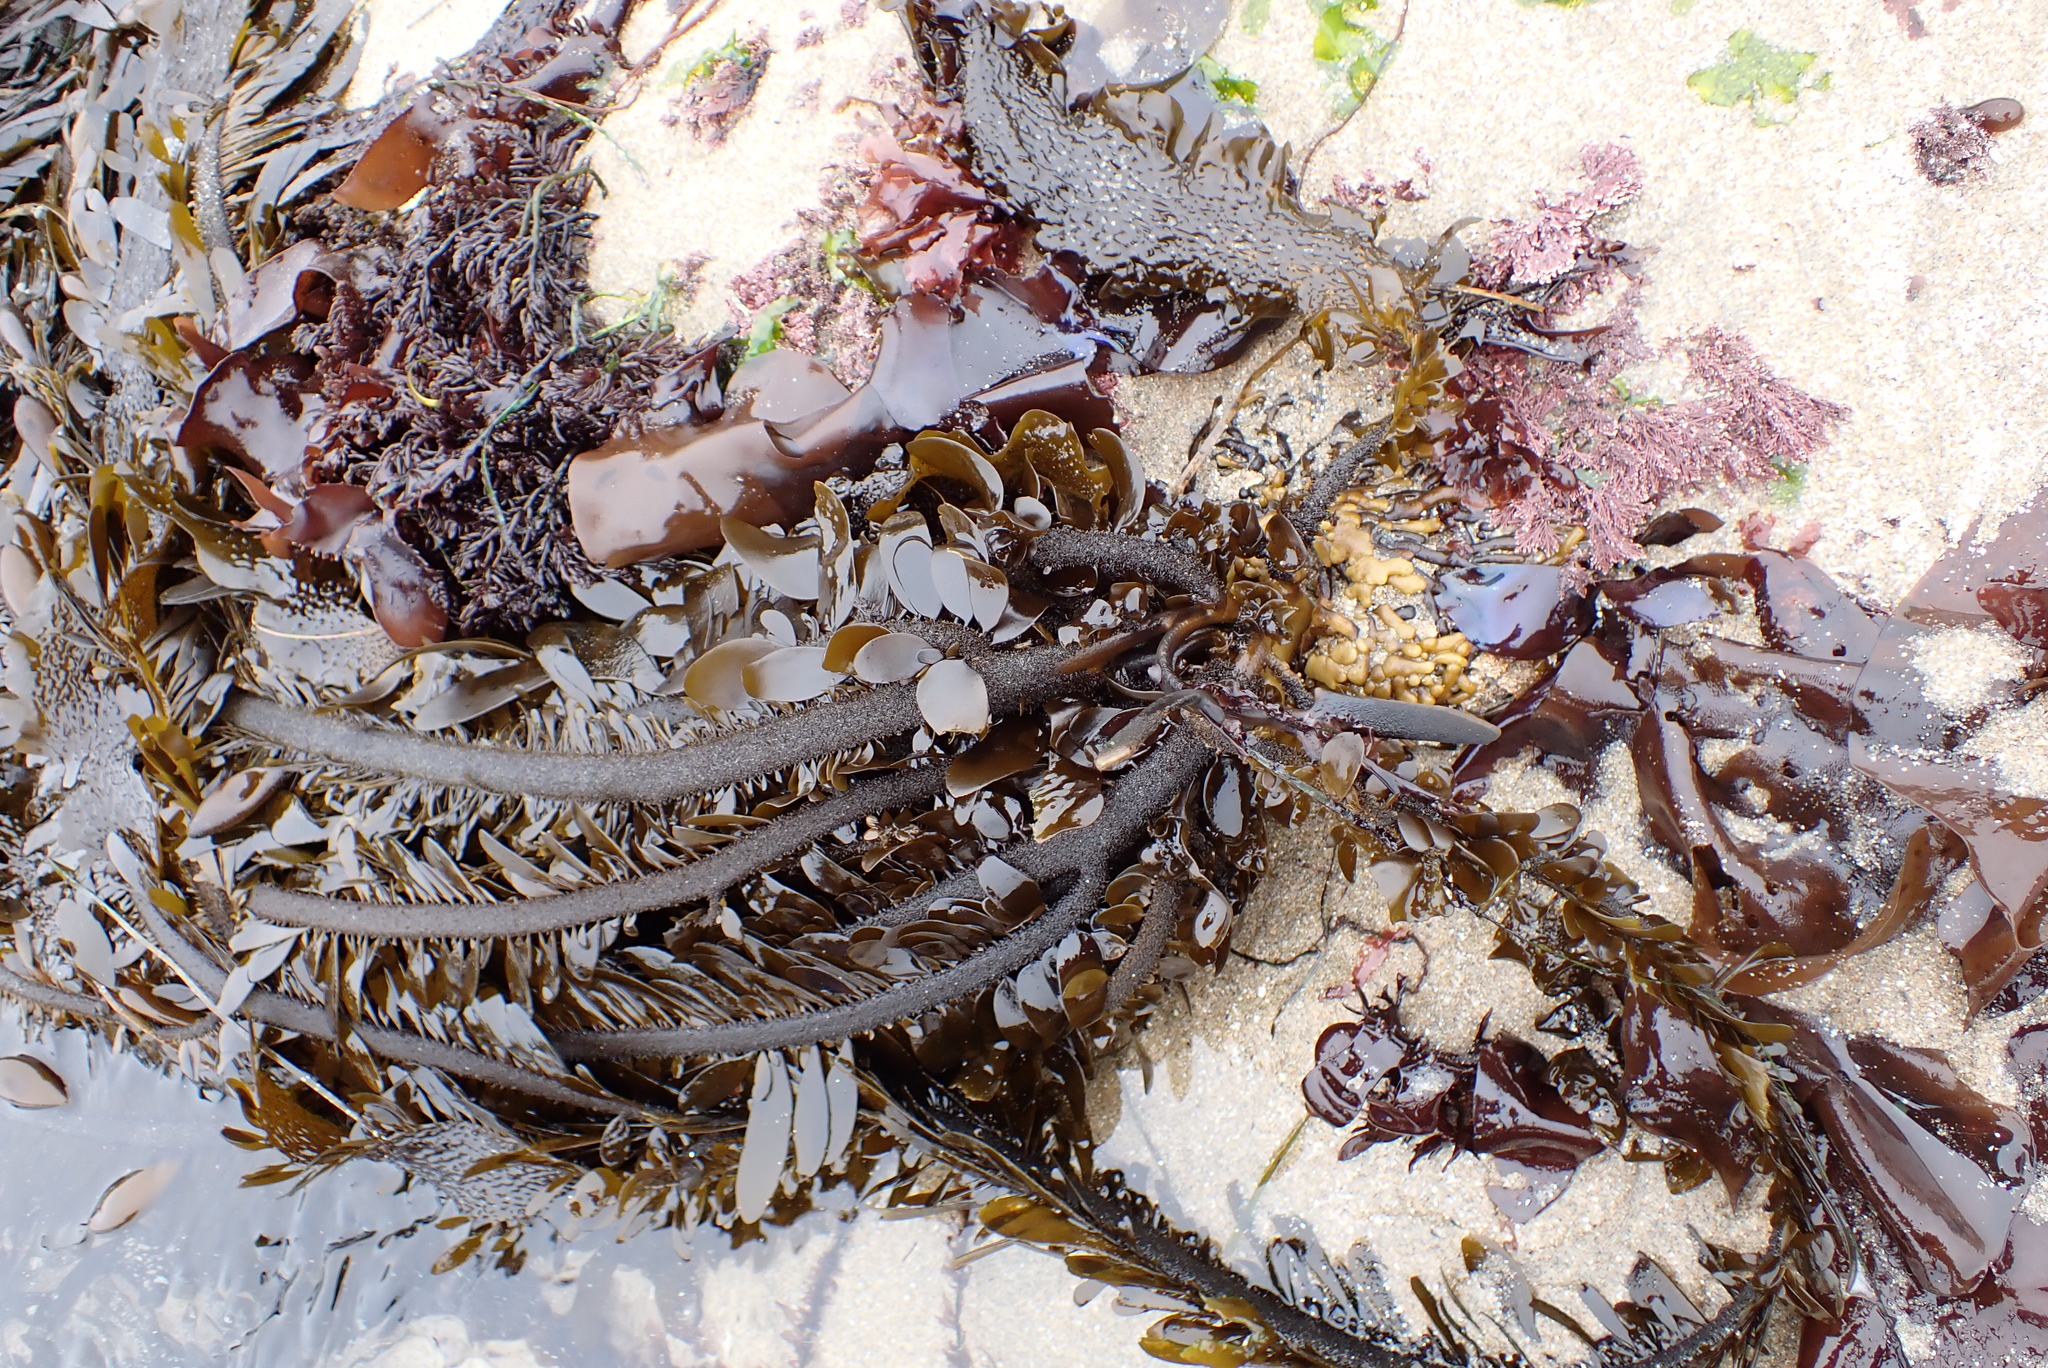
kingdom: Chromista
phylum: Ochrophyta
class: Phaeophyceae
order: Laminariales
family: Lessoniaceae
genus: Egregia
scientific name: Egregia menziesii
